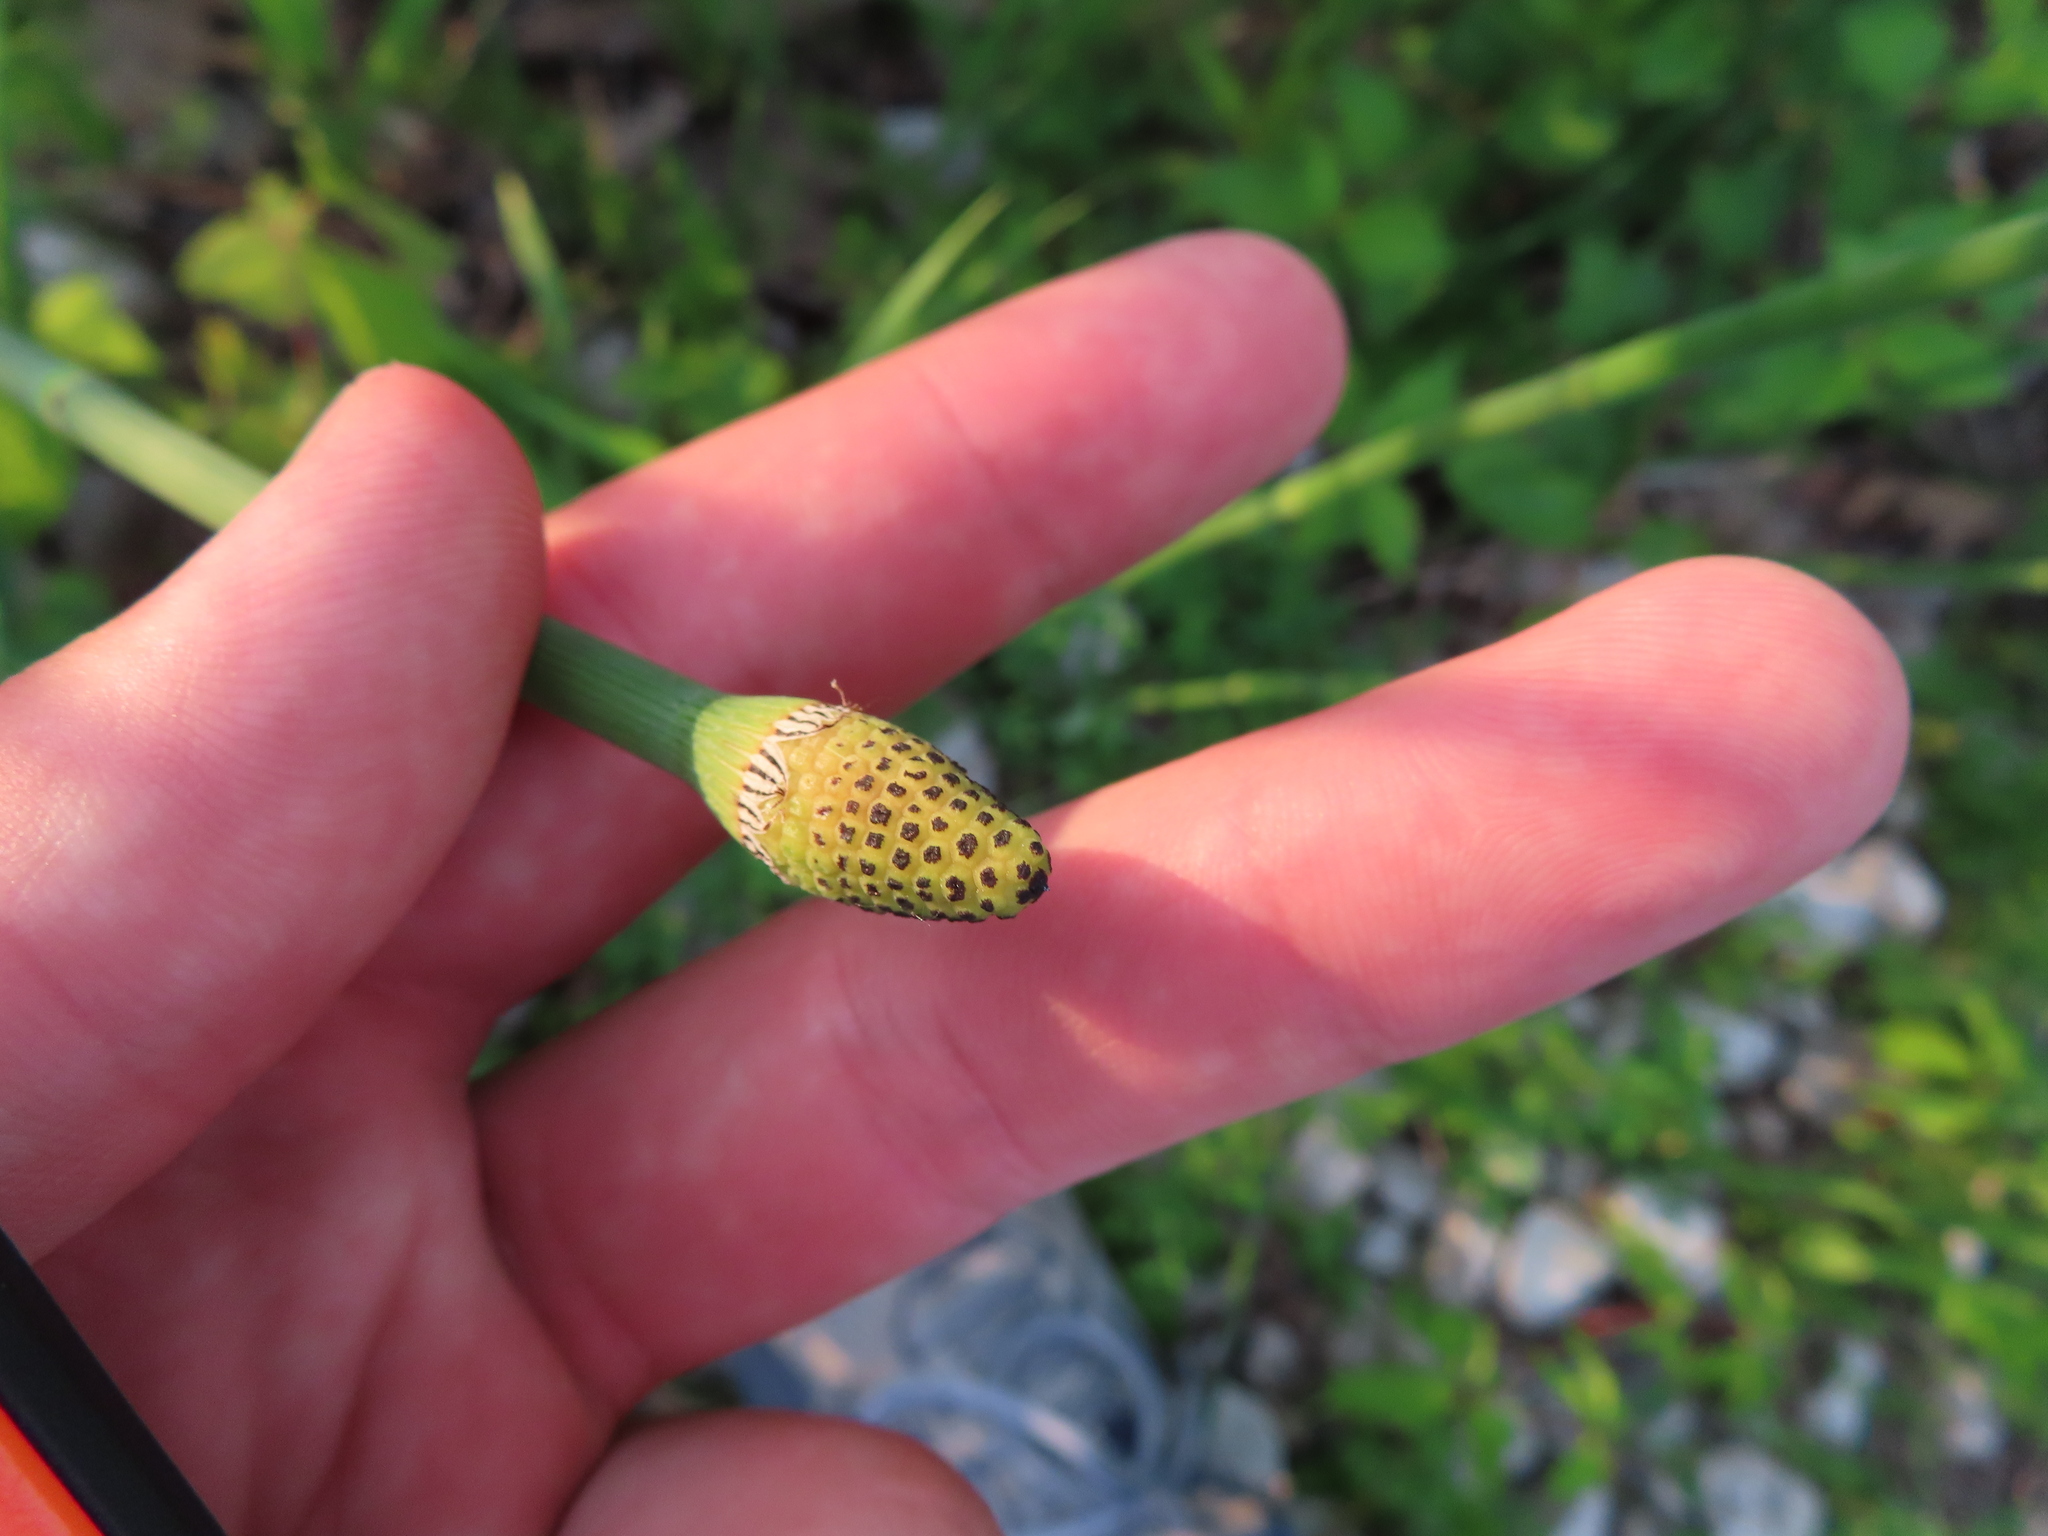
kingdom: Plantae
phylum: Tracheophyta
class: Polypodiopsida
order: Equisetales
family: Equisetaceae
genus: Equisetum
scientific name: Equisetum laevigatum
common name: Smooth scouring-rush
